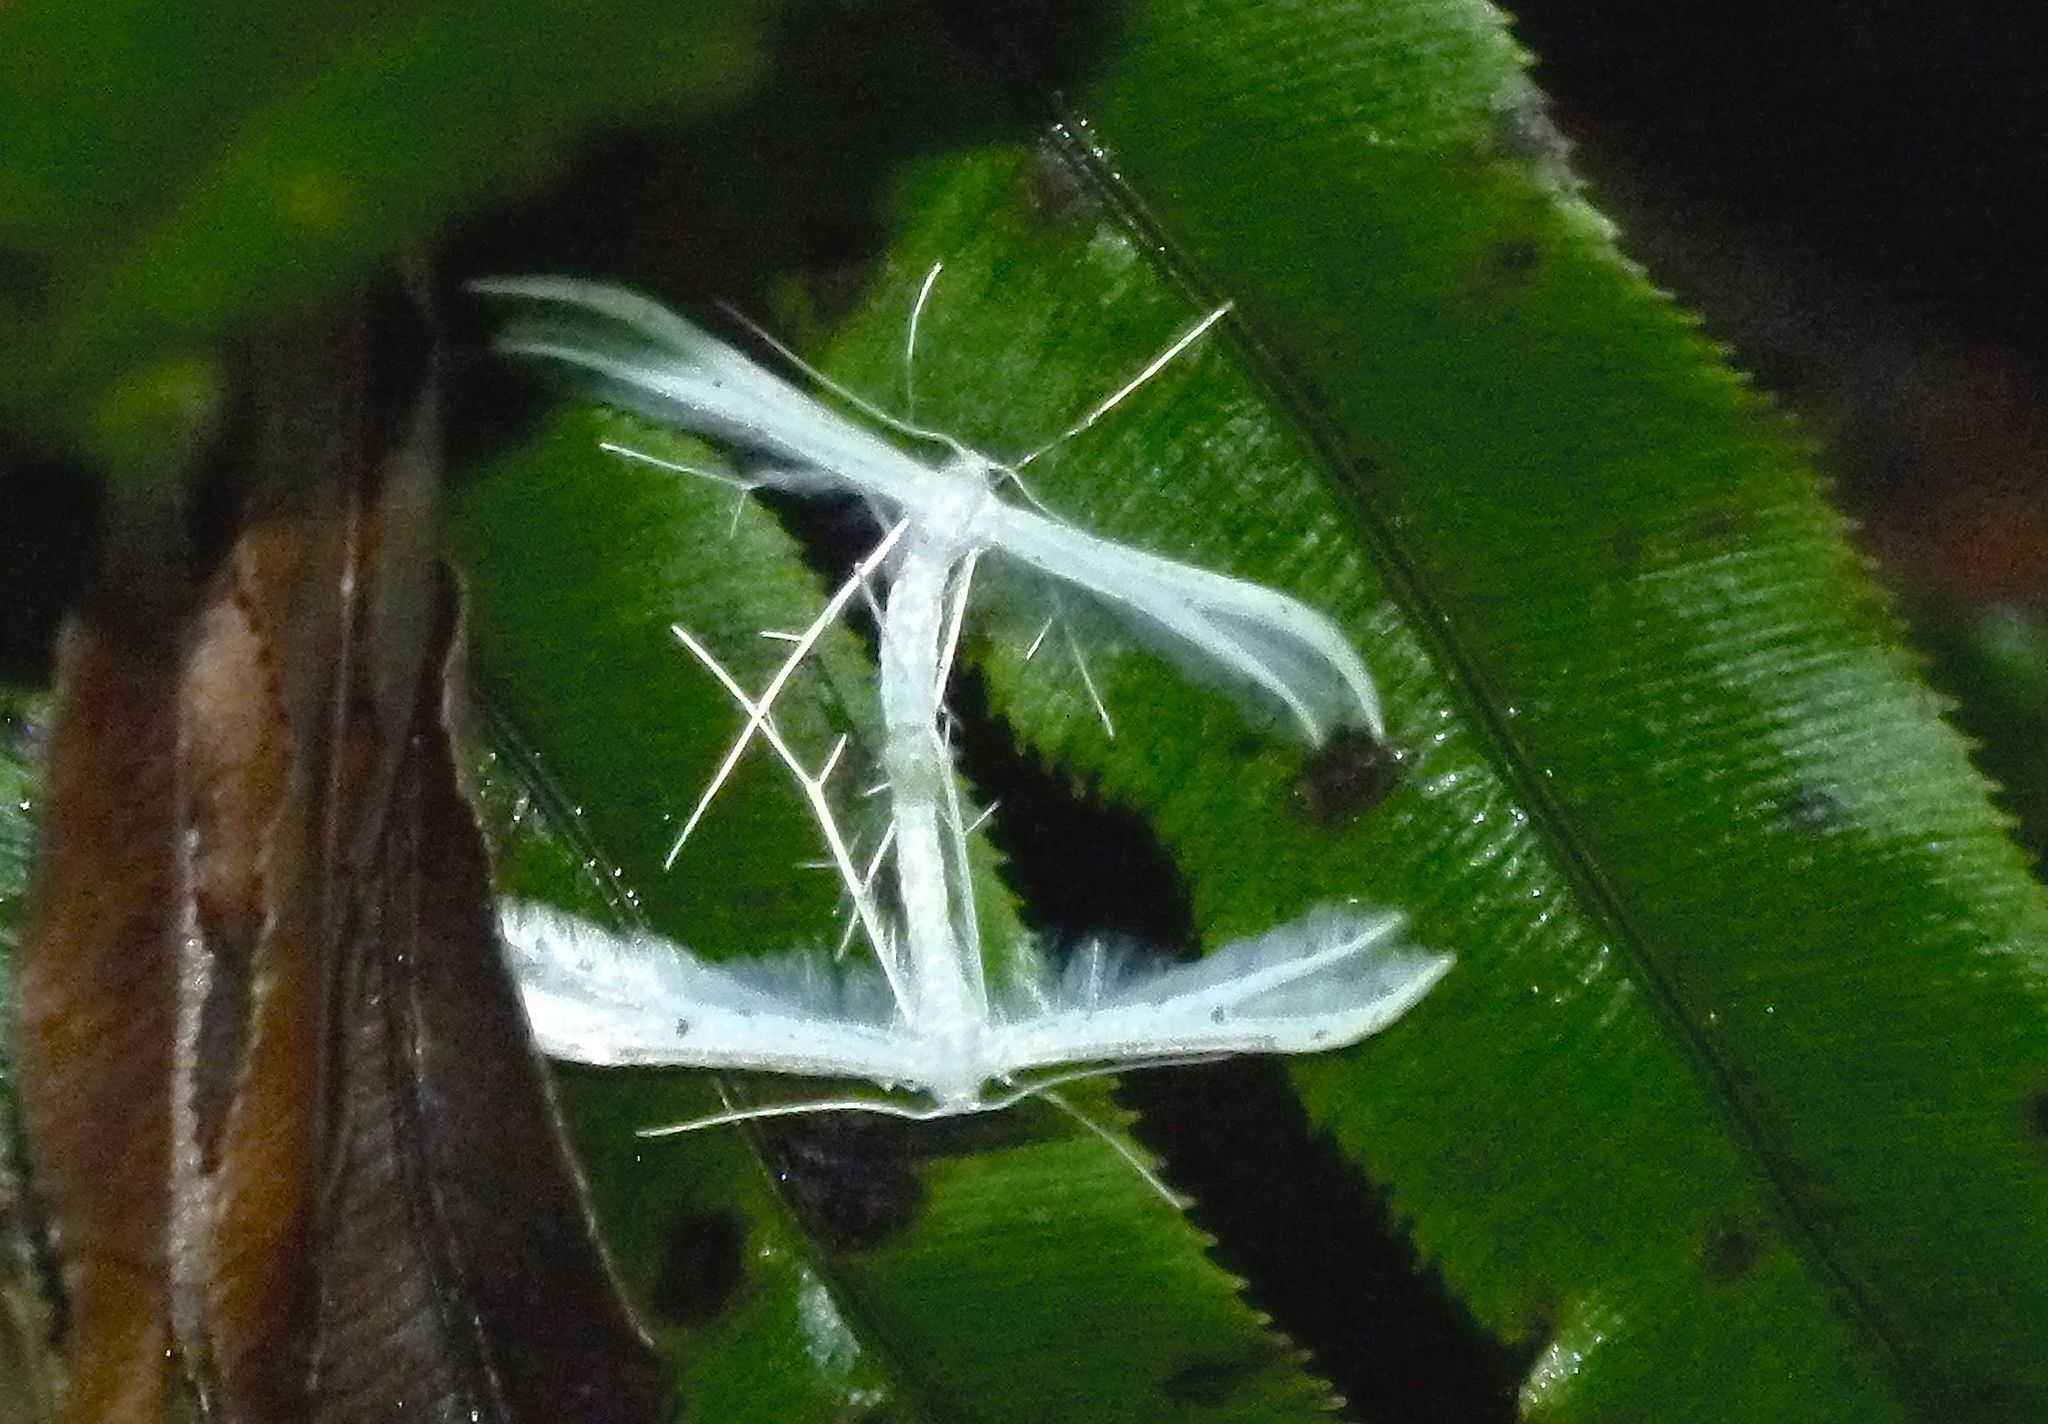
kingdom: Animalia
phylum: Arthropoda
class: Insecta
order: Lepidoptera
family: Pterophoridae
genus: Pterophorus
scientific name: Pterophorus monospilalis
